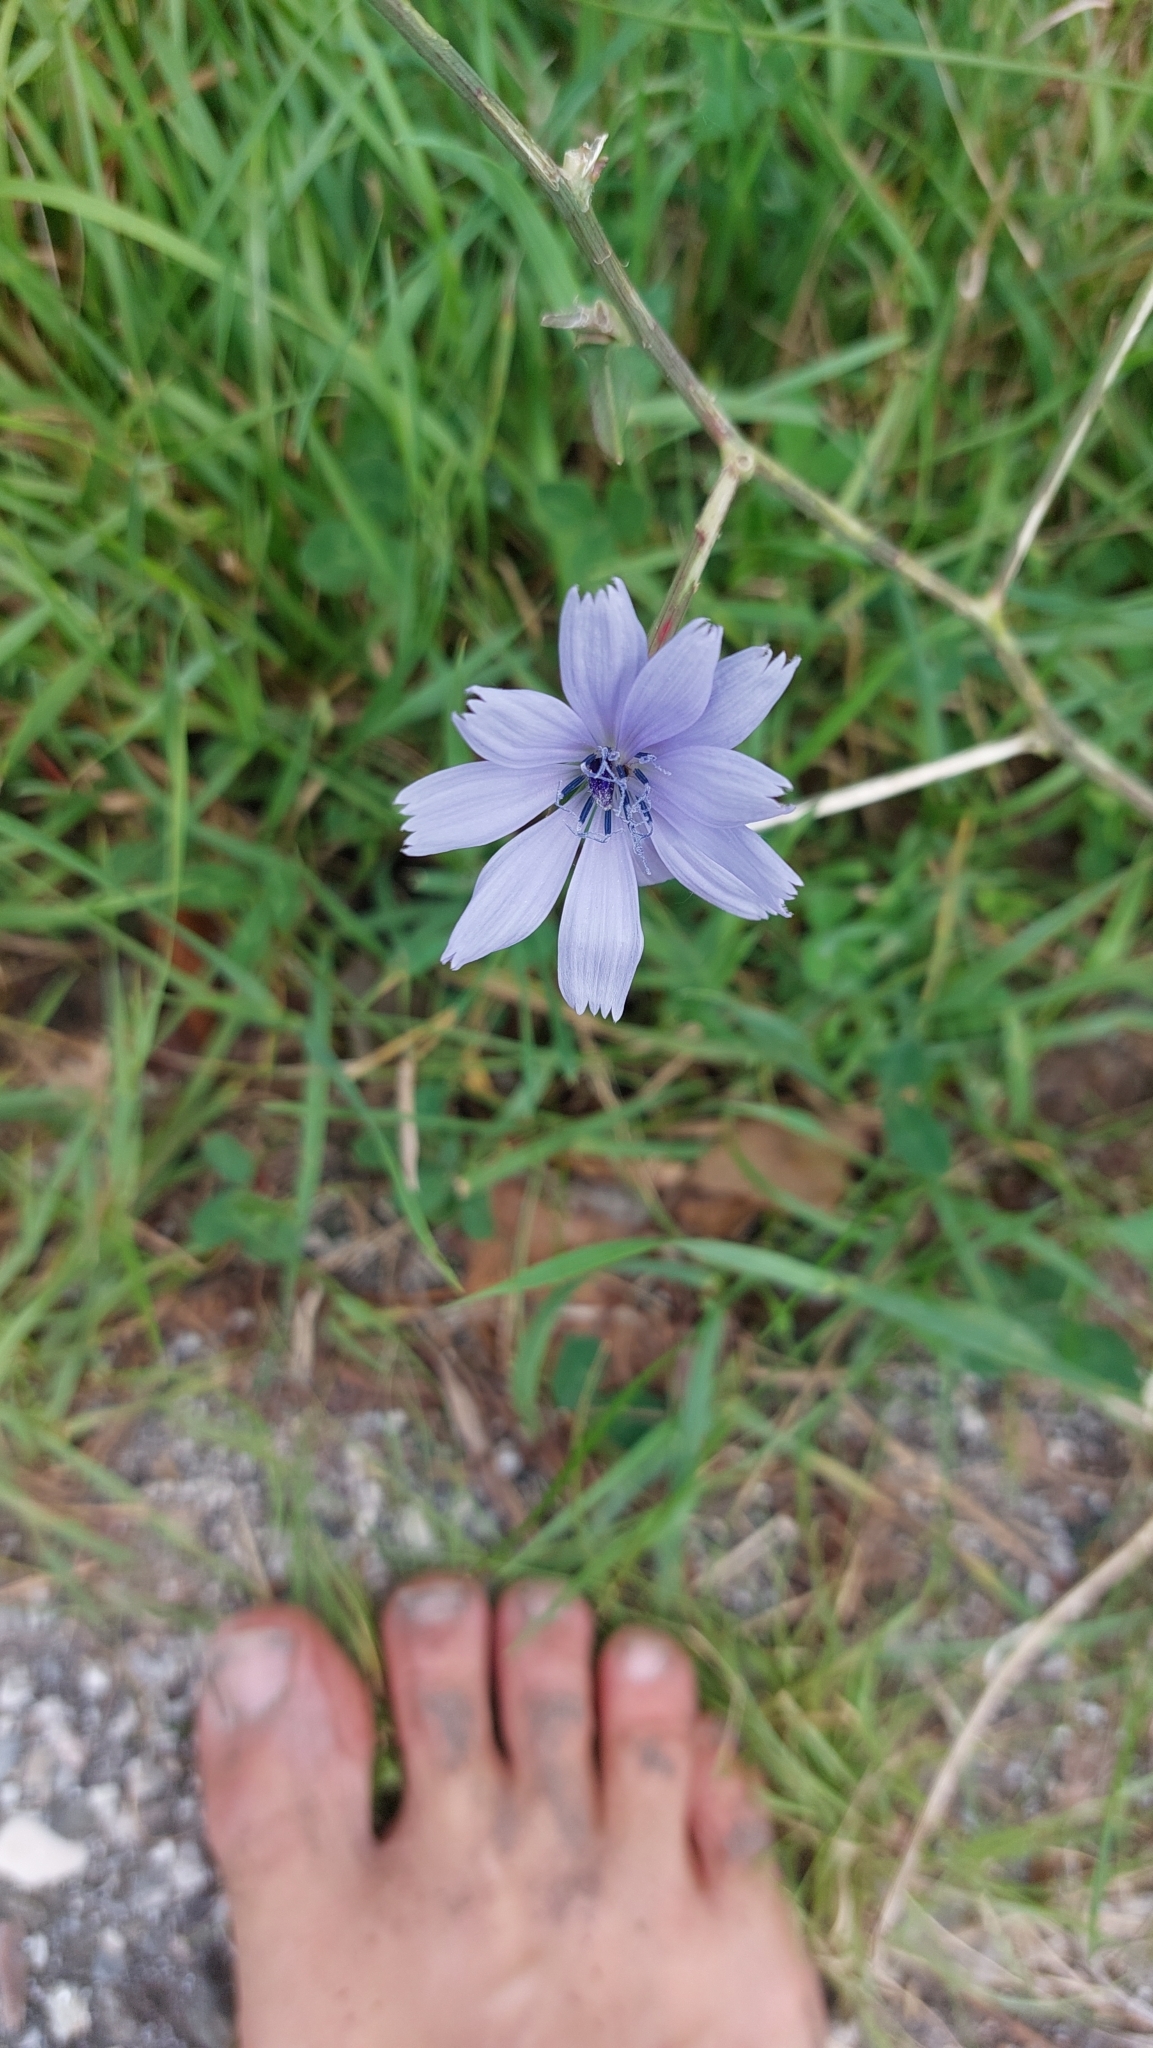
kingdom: Plantae
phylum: Tracheophyta
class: Magnoliopsida
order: Asterales
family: Asteraceae
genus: Cichorium
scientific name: Cichorium intybus
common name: Chicory
